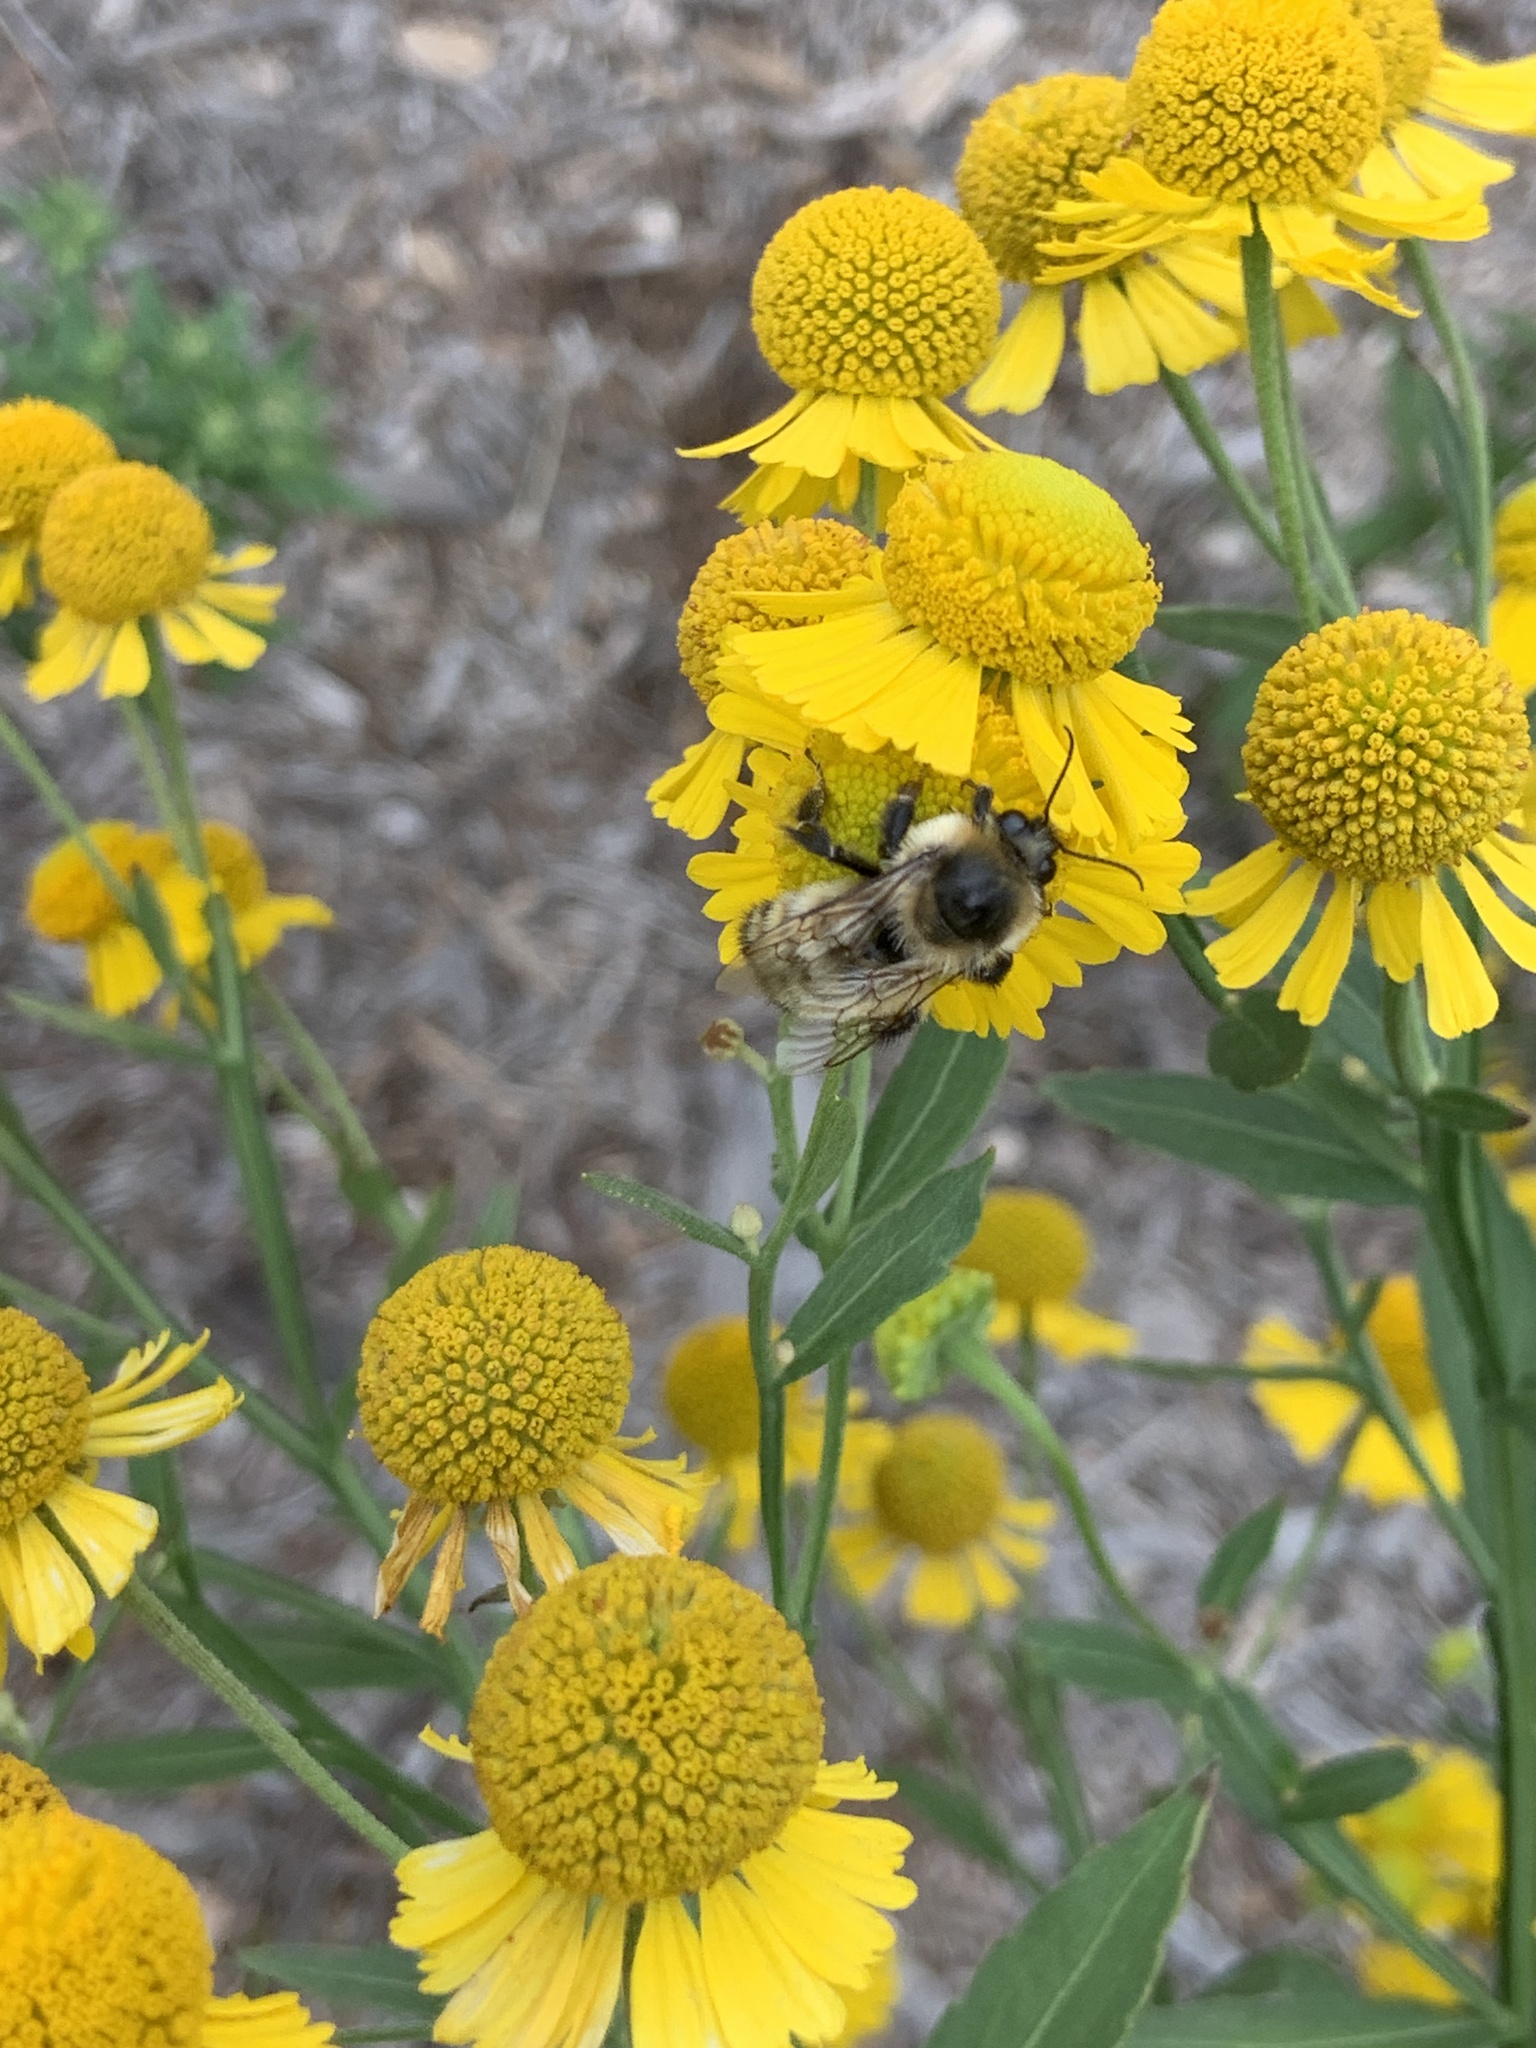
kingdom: Animalia
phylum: Arthropoda
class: Insecta
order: Hymenoptera
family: Apidae
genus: Bombus
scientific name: Bombus rufocinctus
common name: Red-belted bumble bee
